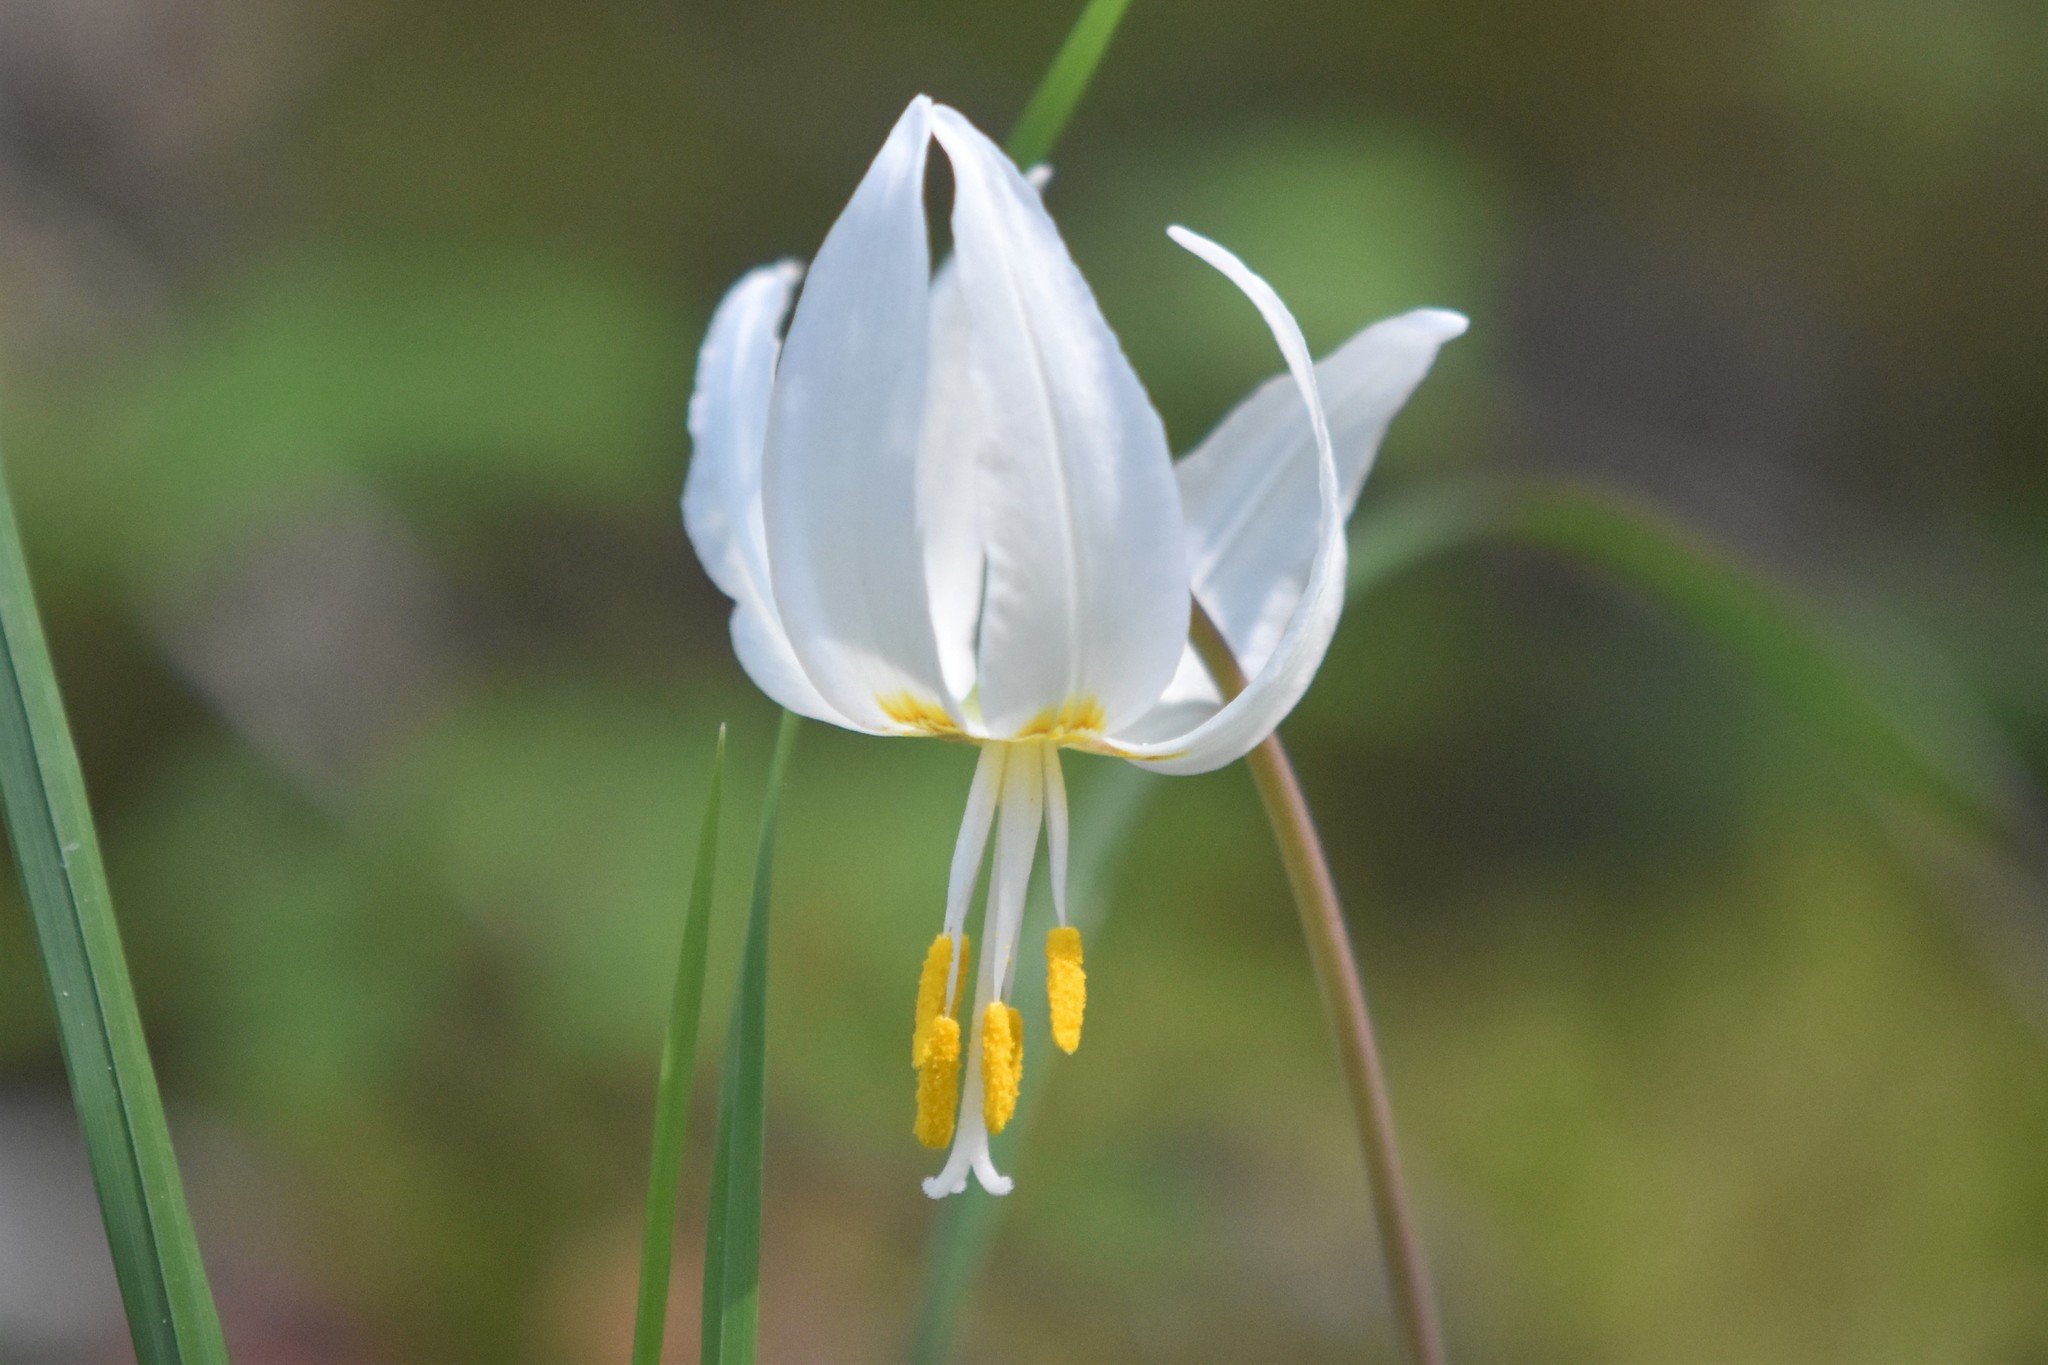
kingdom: Plantae
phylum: Tracheophyta
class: Liliopsida
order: Liliales
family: Liliaceae
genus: Erythronium
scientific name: Erythronium oregonum
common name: Giant adder's-tongue
